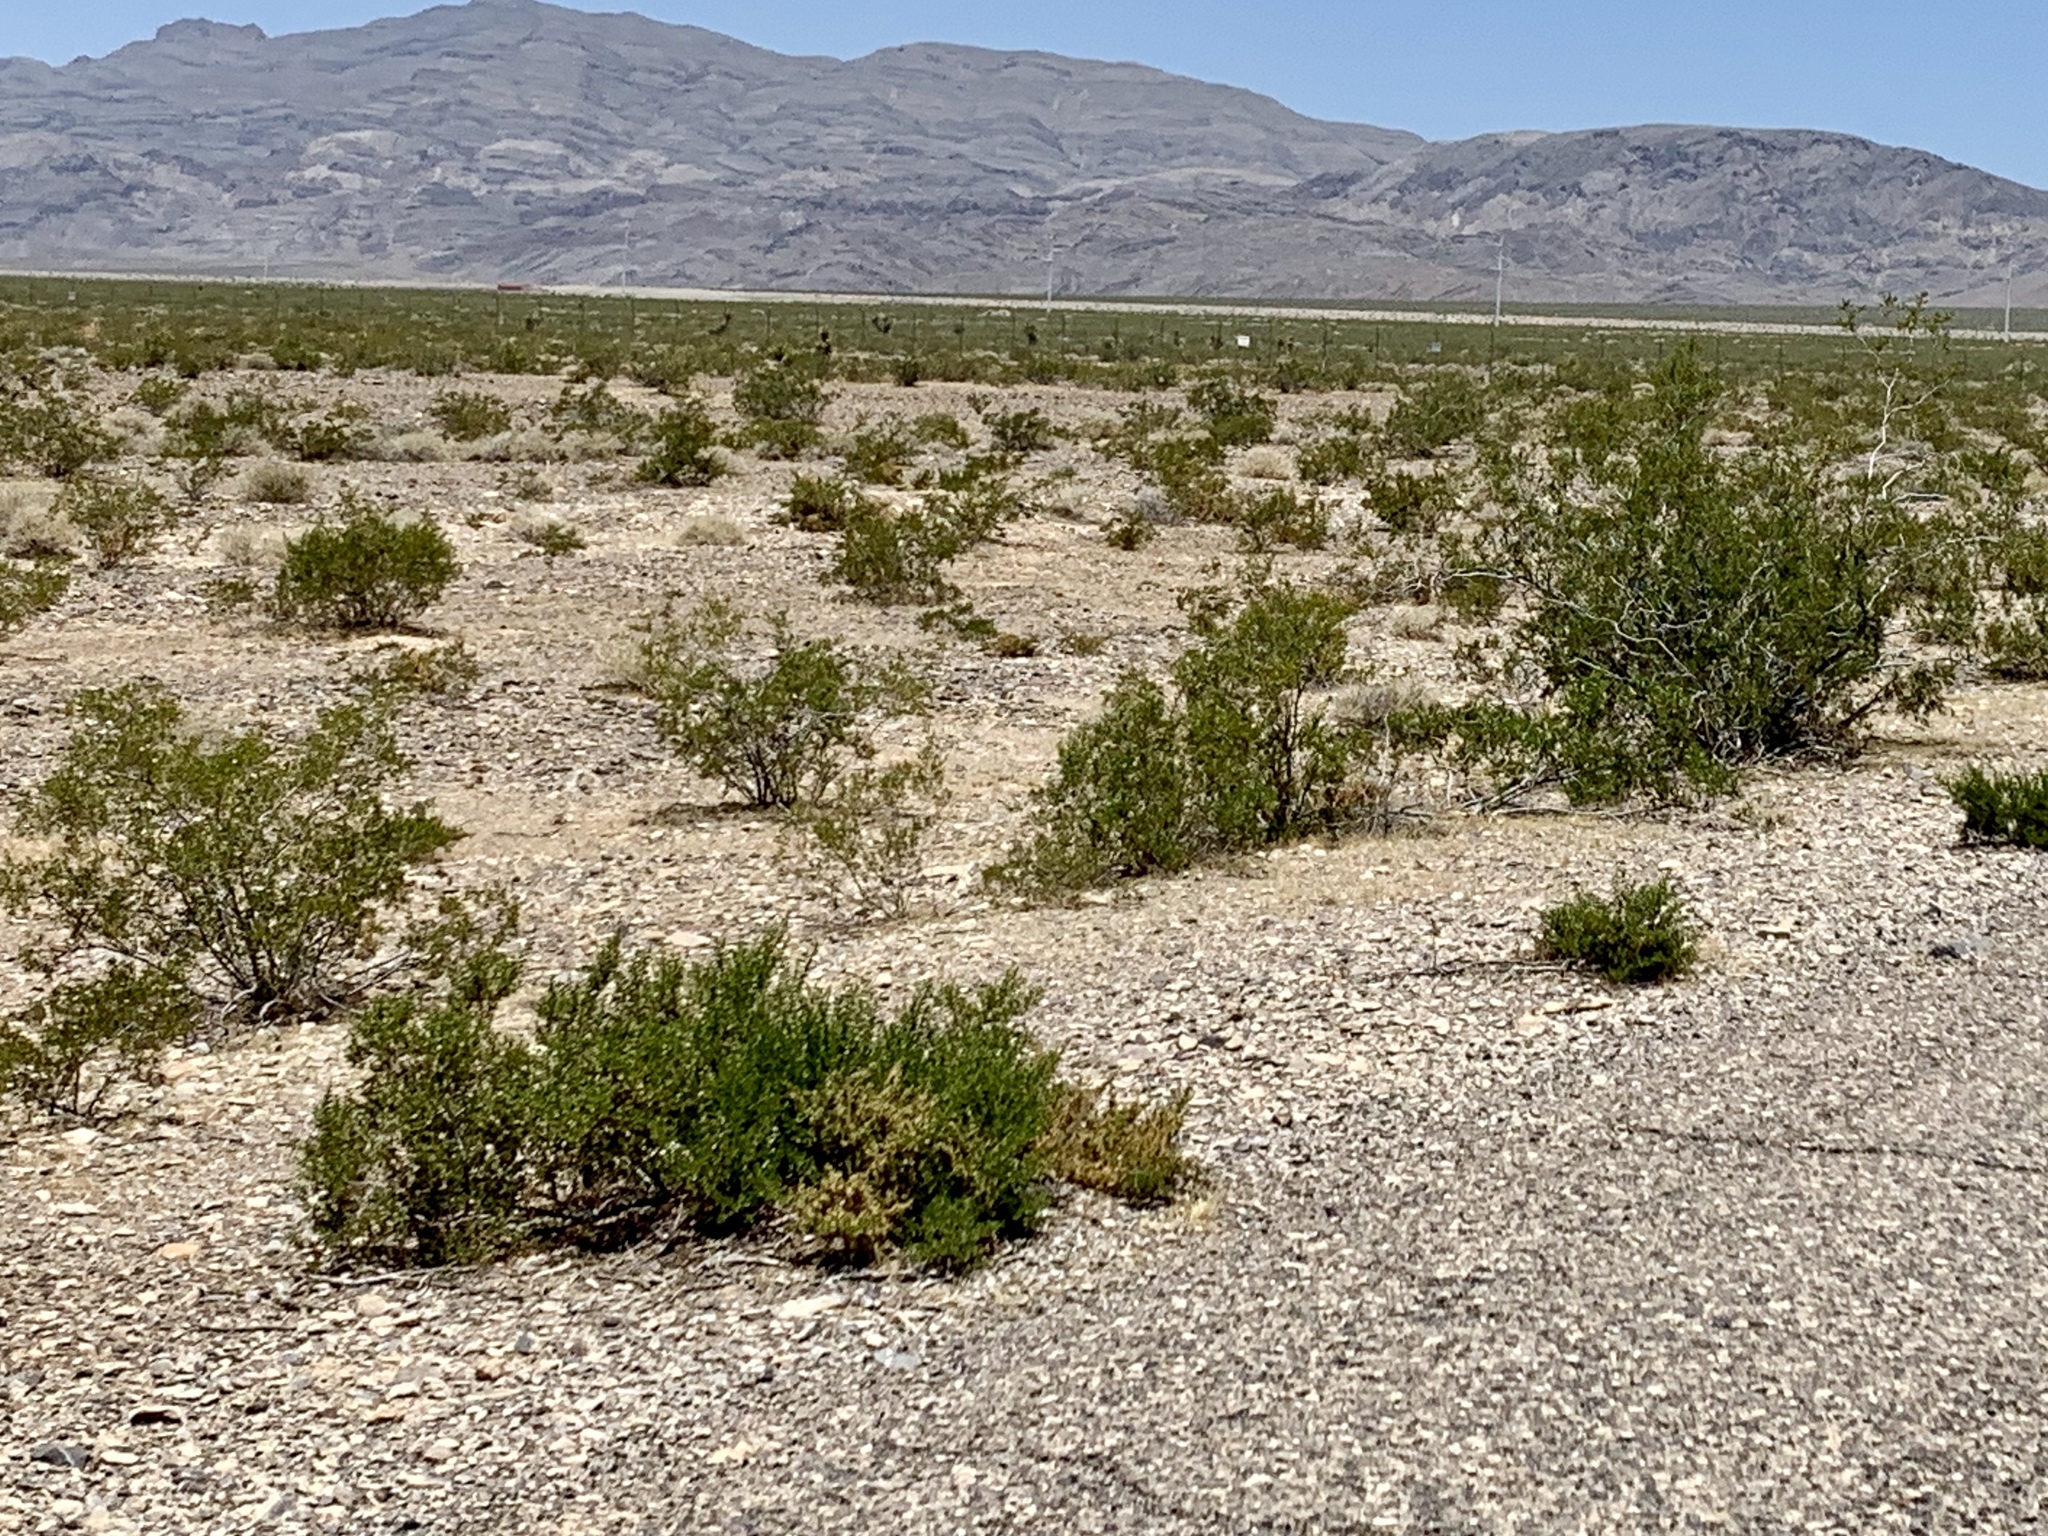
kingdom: Plantae
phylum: Tracheophyta
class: Magnoliopsida
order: Zygophyllales
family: Zygophyllaceae
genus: Larrea
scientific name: Larrea tridentata
